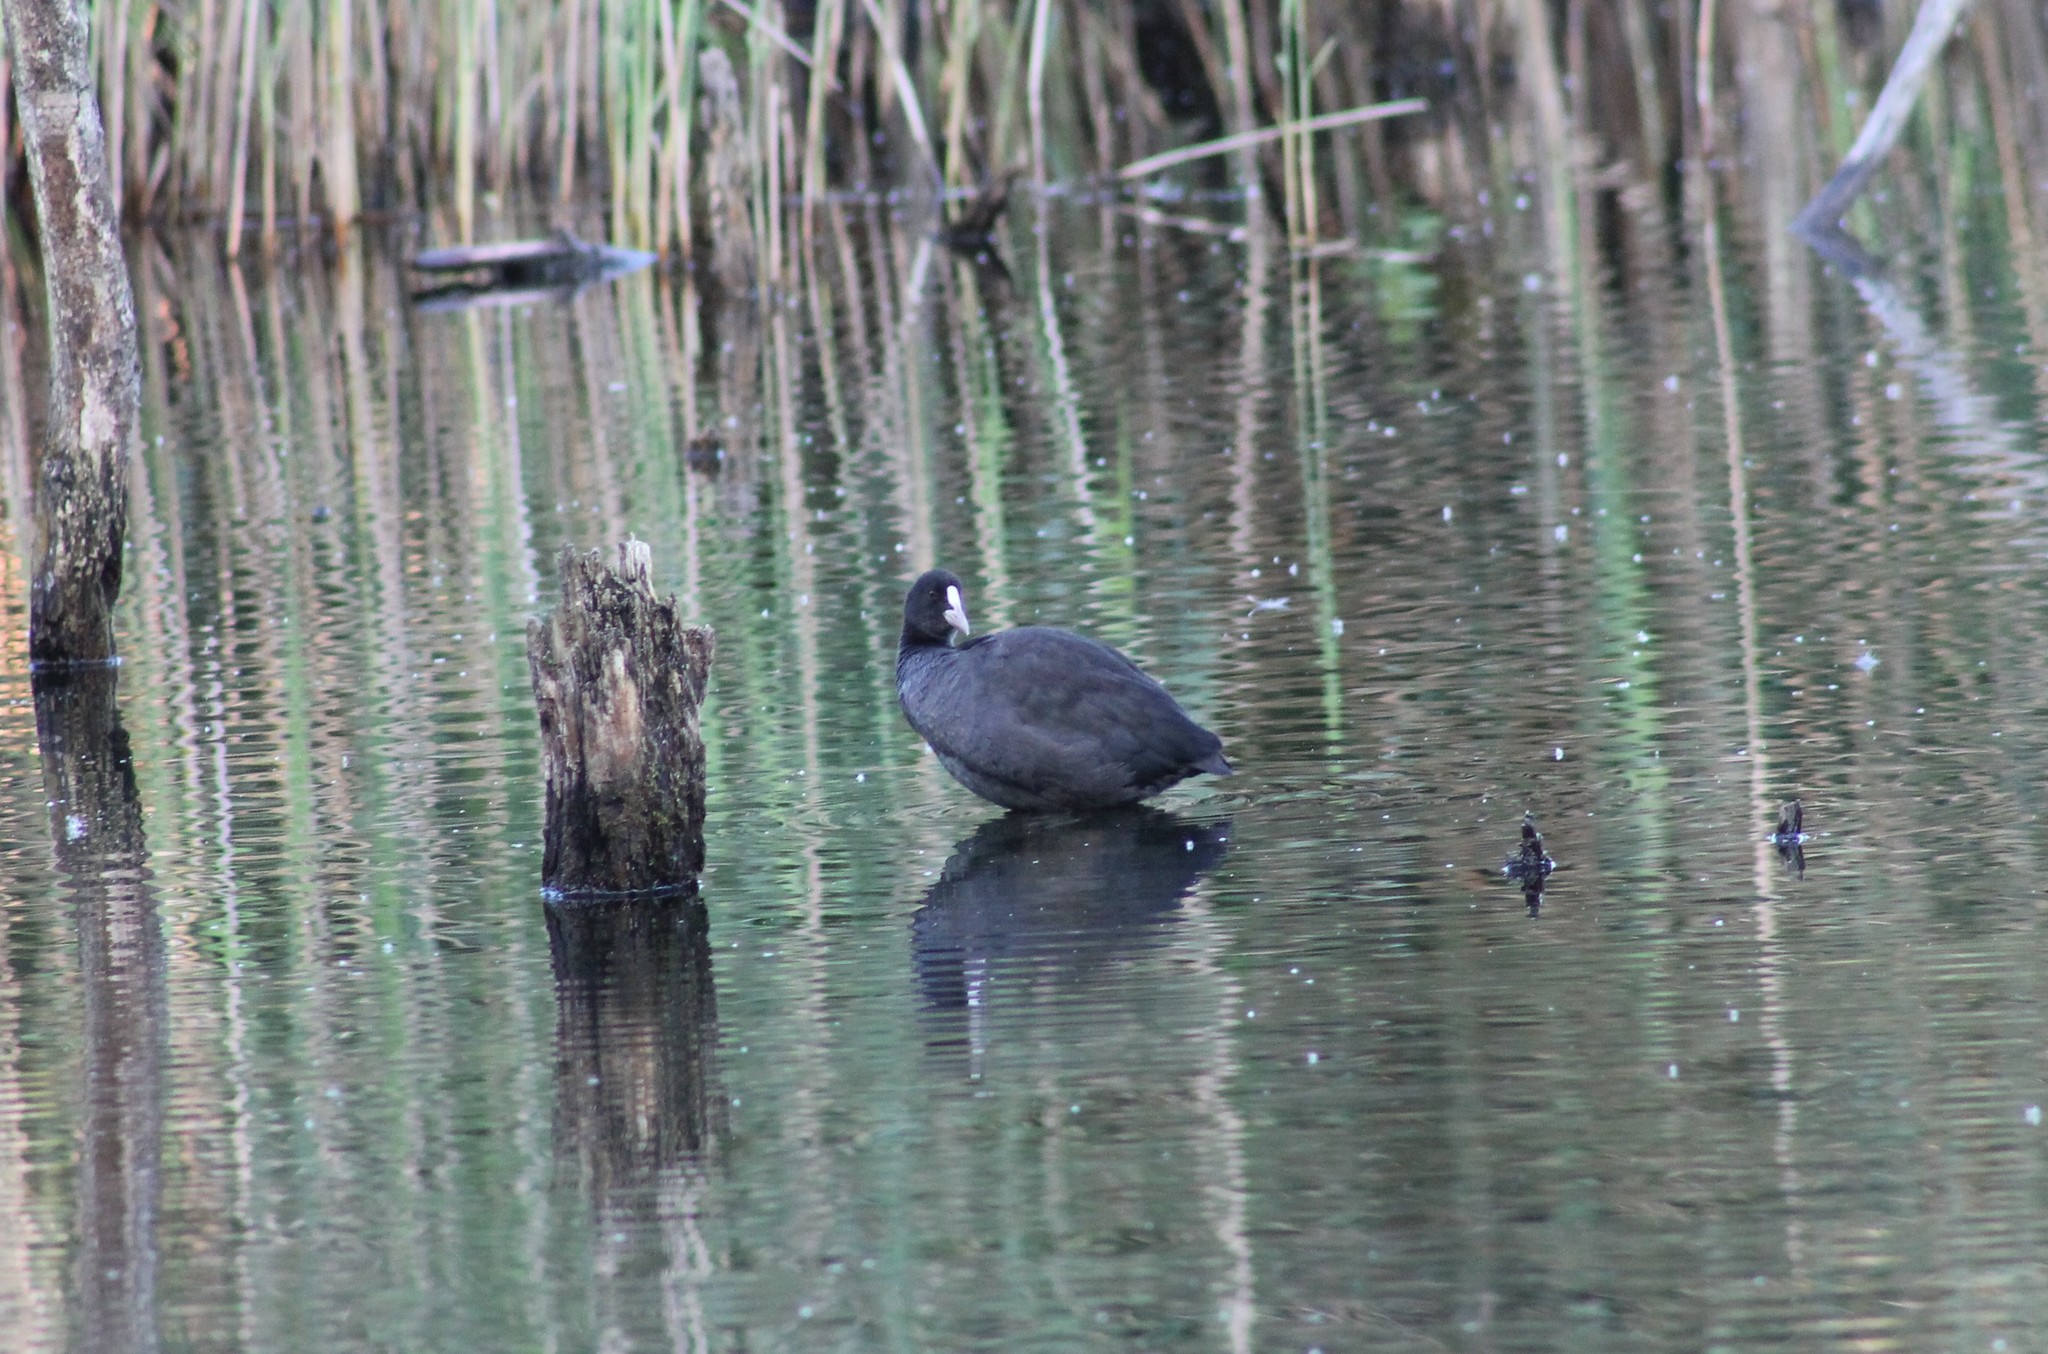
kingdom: Animalia
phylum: Chordata
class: Aves
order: Gruiformes
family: Rallidae
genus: Fulica
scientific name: Fulica atra
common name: Eurasian coot
